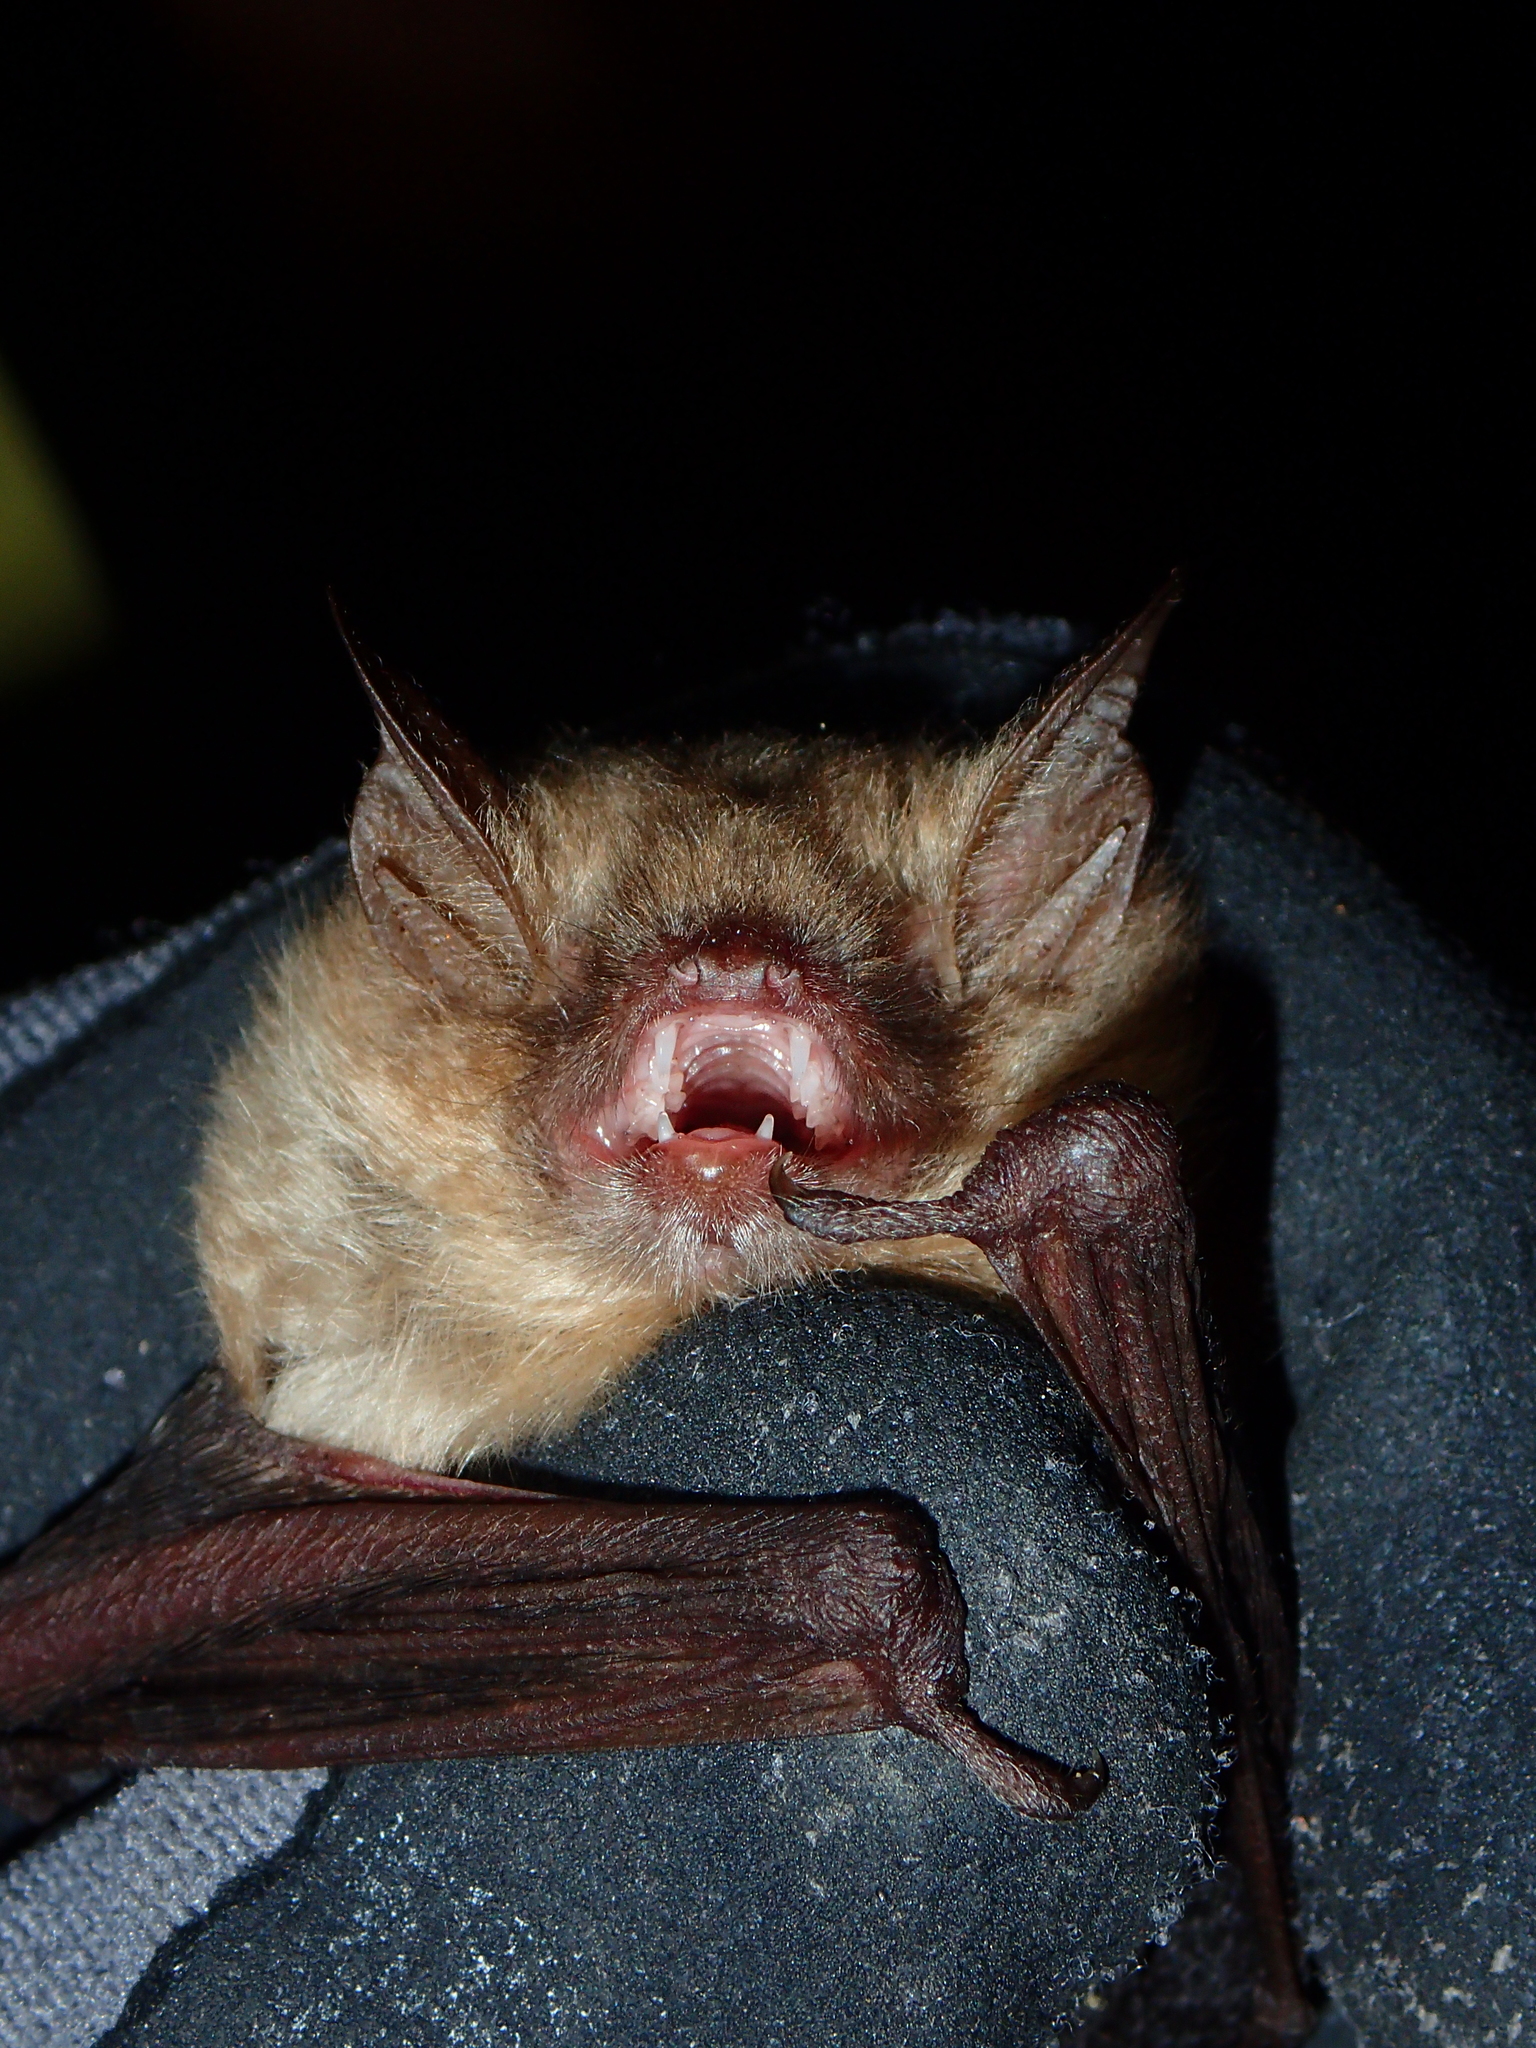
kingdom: Animalia
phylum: Chordata
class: Mammalia
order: Chiroptera
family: Vespertilionidae
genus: Myotis
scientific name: Myotis emarginatus
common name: Geoffroy's bat
